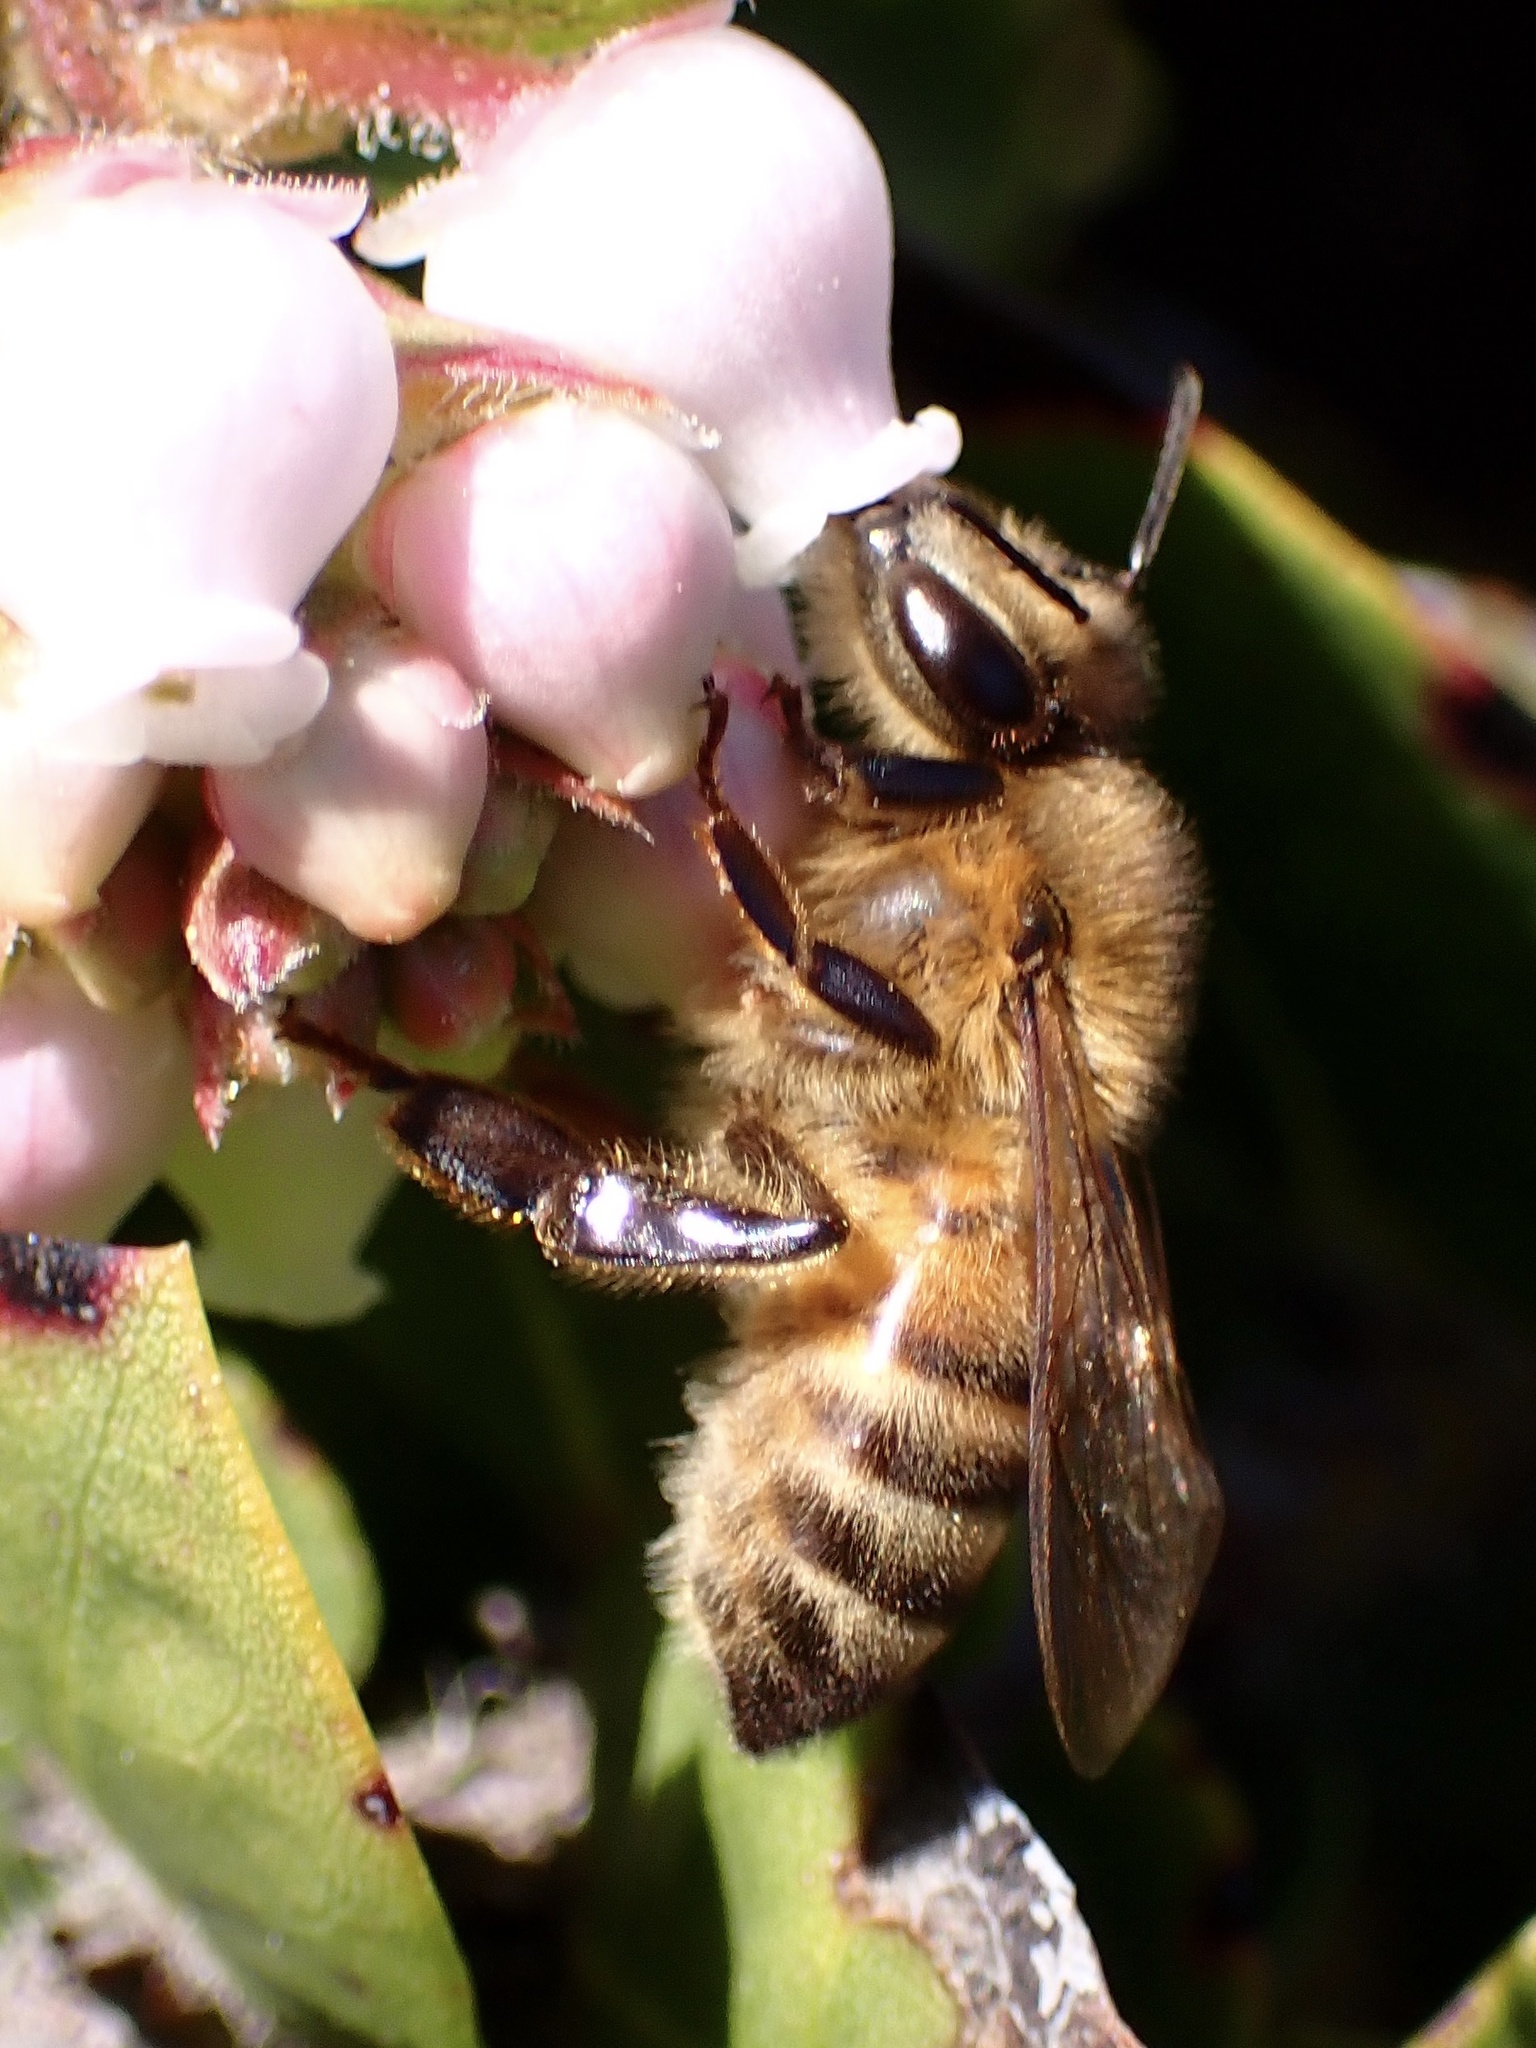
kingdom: Animalia
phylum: Arthropoda
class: Insecta
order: Hymenoptera
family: Apidae
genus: Apis
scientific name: Apis mellifera
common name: Honey bee
